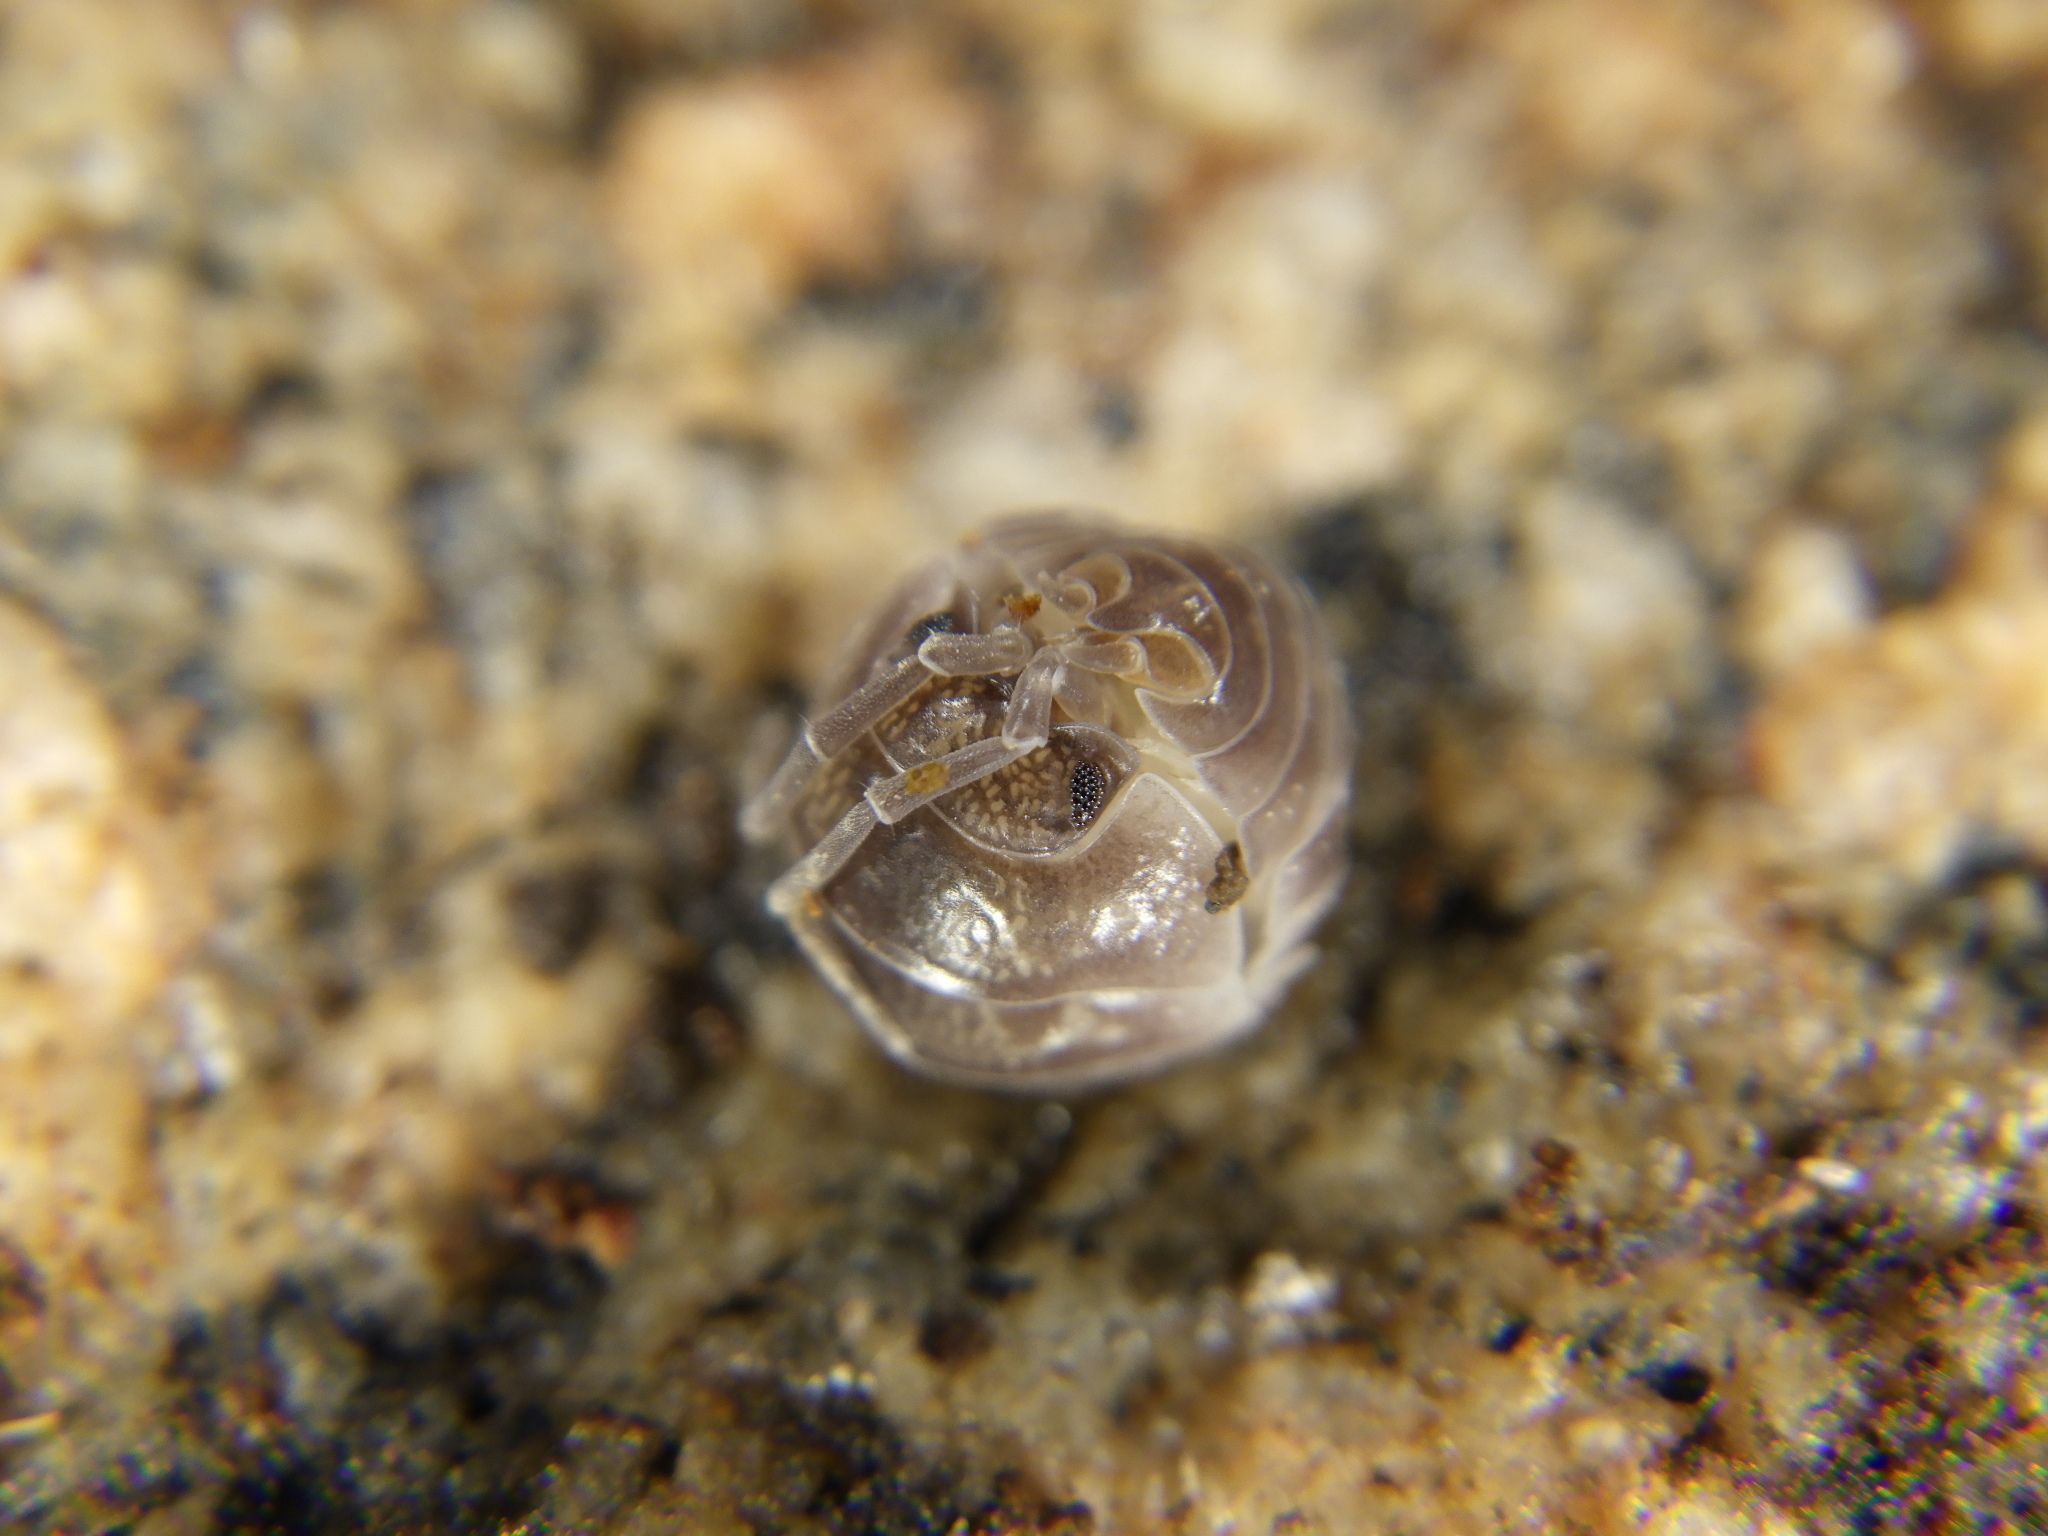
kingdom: Animalia
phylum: Arthropoda
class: Malacostraca
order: Isopoda
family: Cylisticidae
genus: Cylisticus
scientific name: Cylisticus convexus
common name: Curly woodlouse
